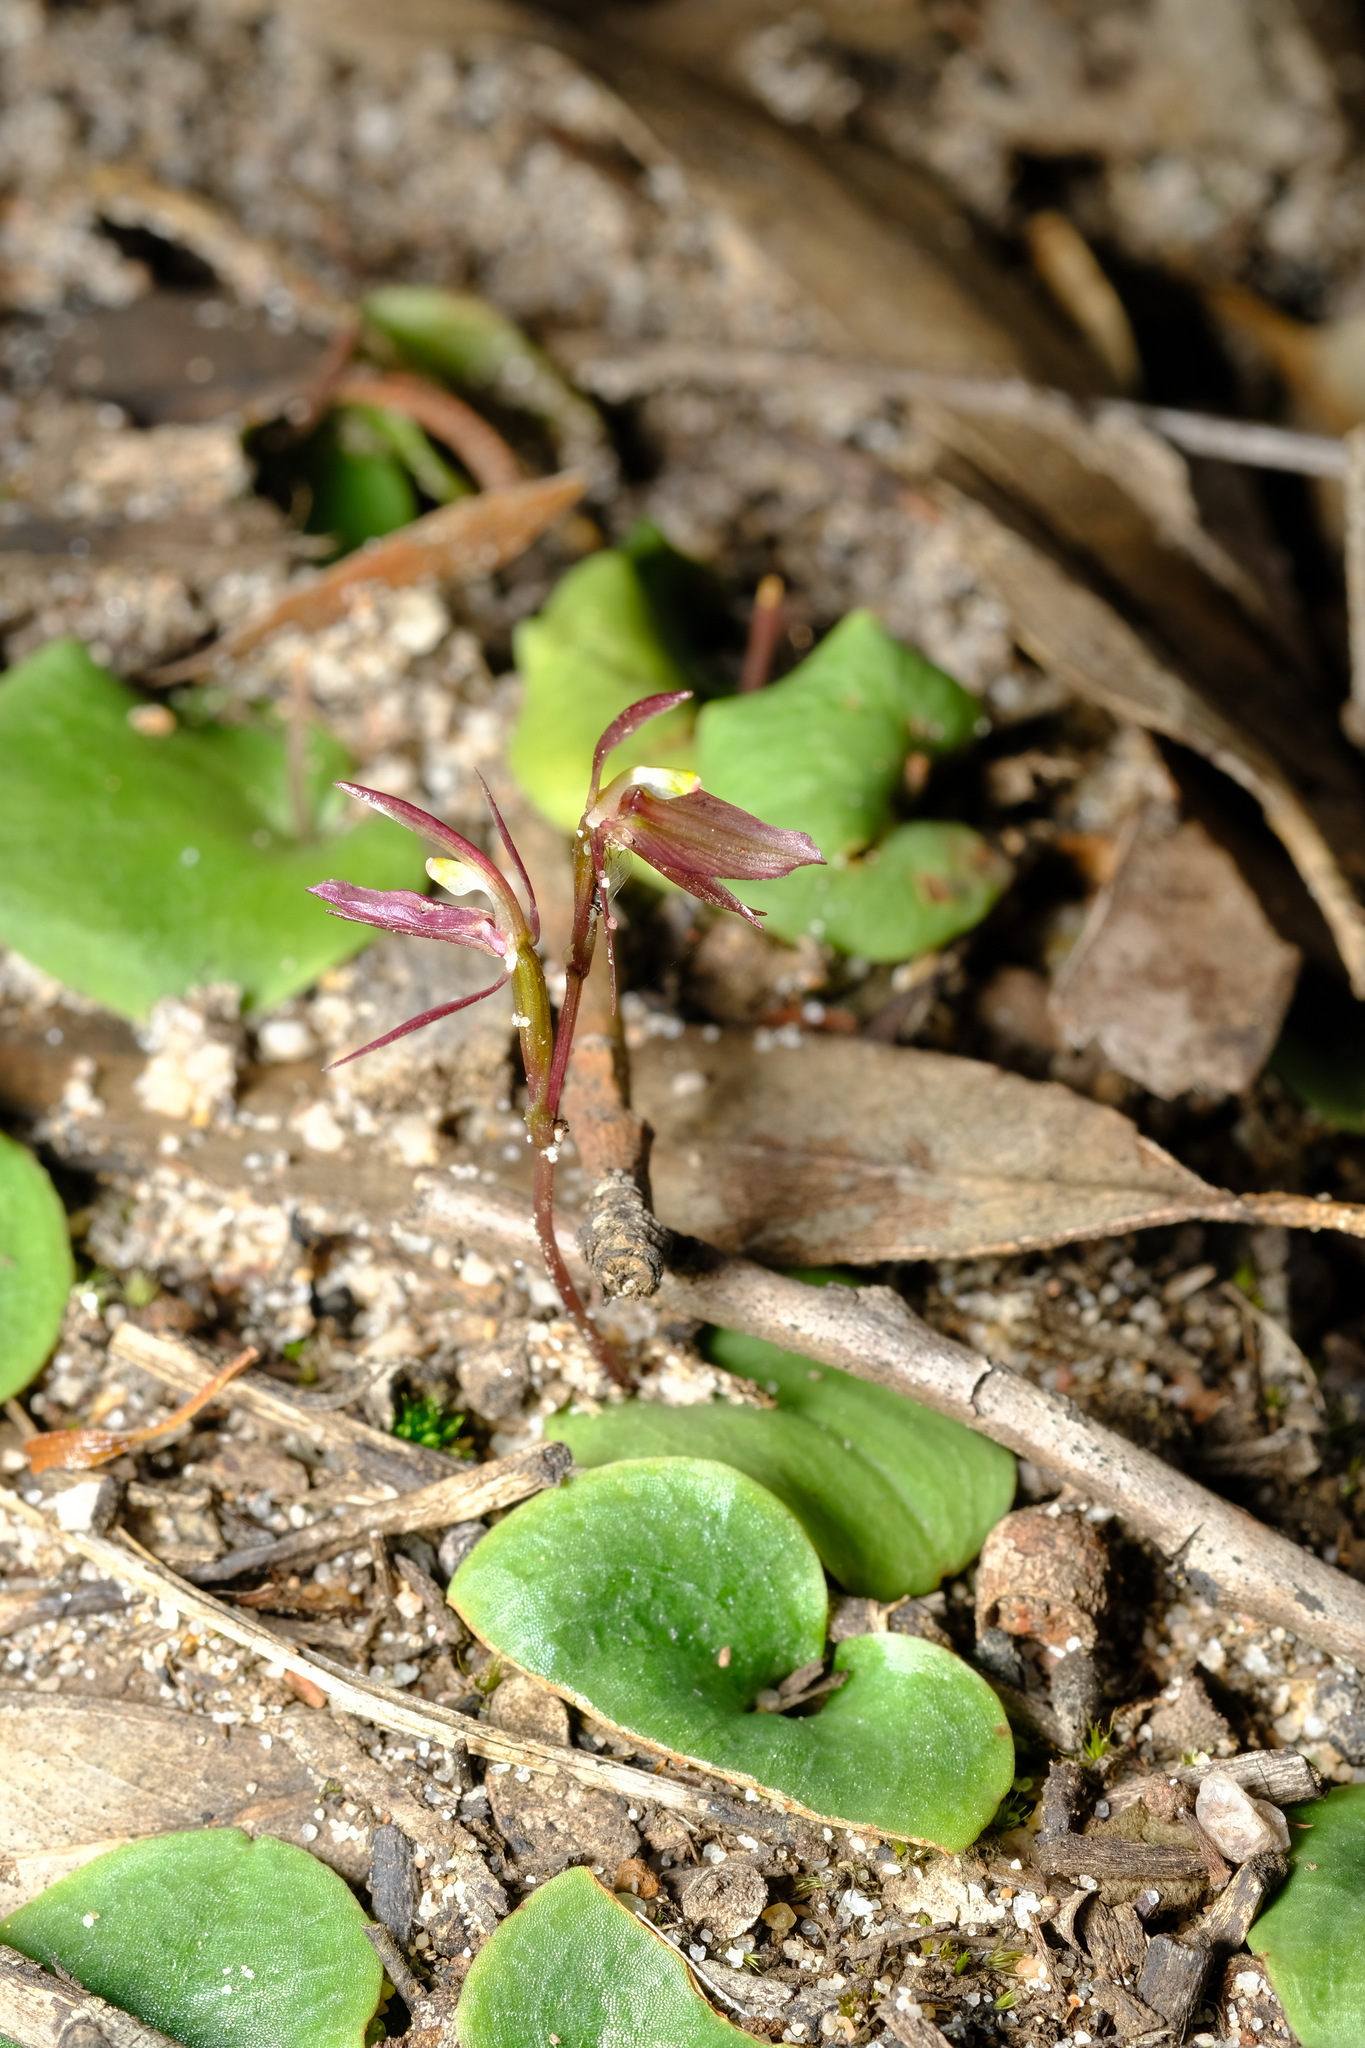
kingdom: Plantae
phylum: Tracheophyta
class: Liliopsida
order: Asparagales
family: Orchidaceae
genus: Cyrtostylis
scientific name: Cyrtostylis reniformis
